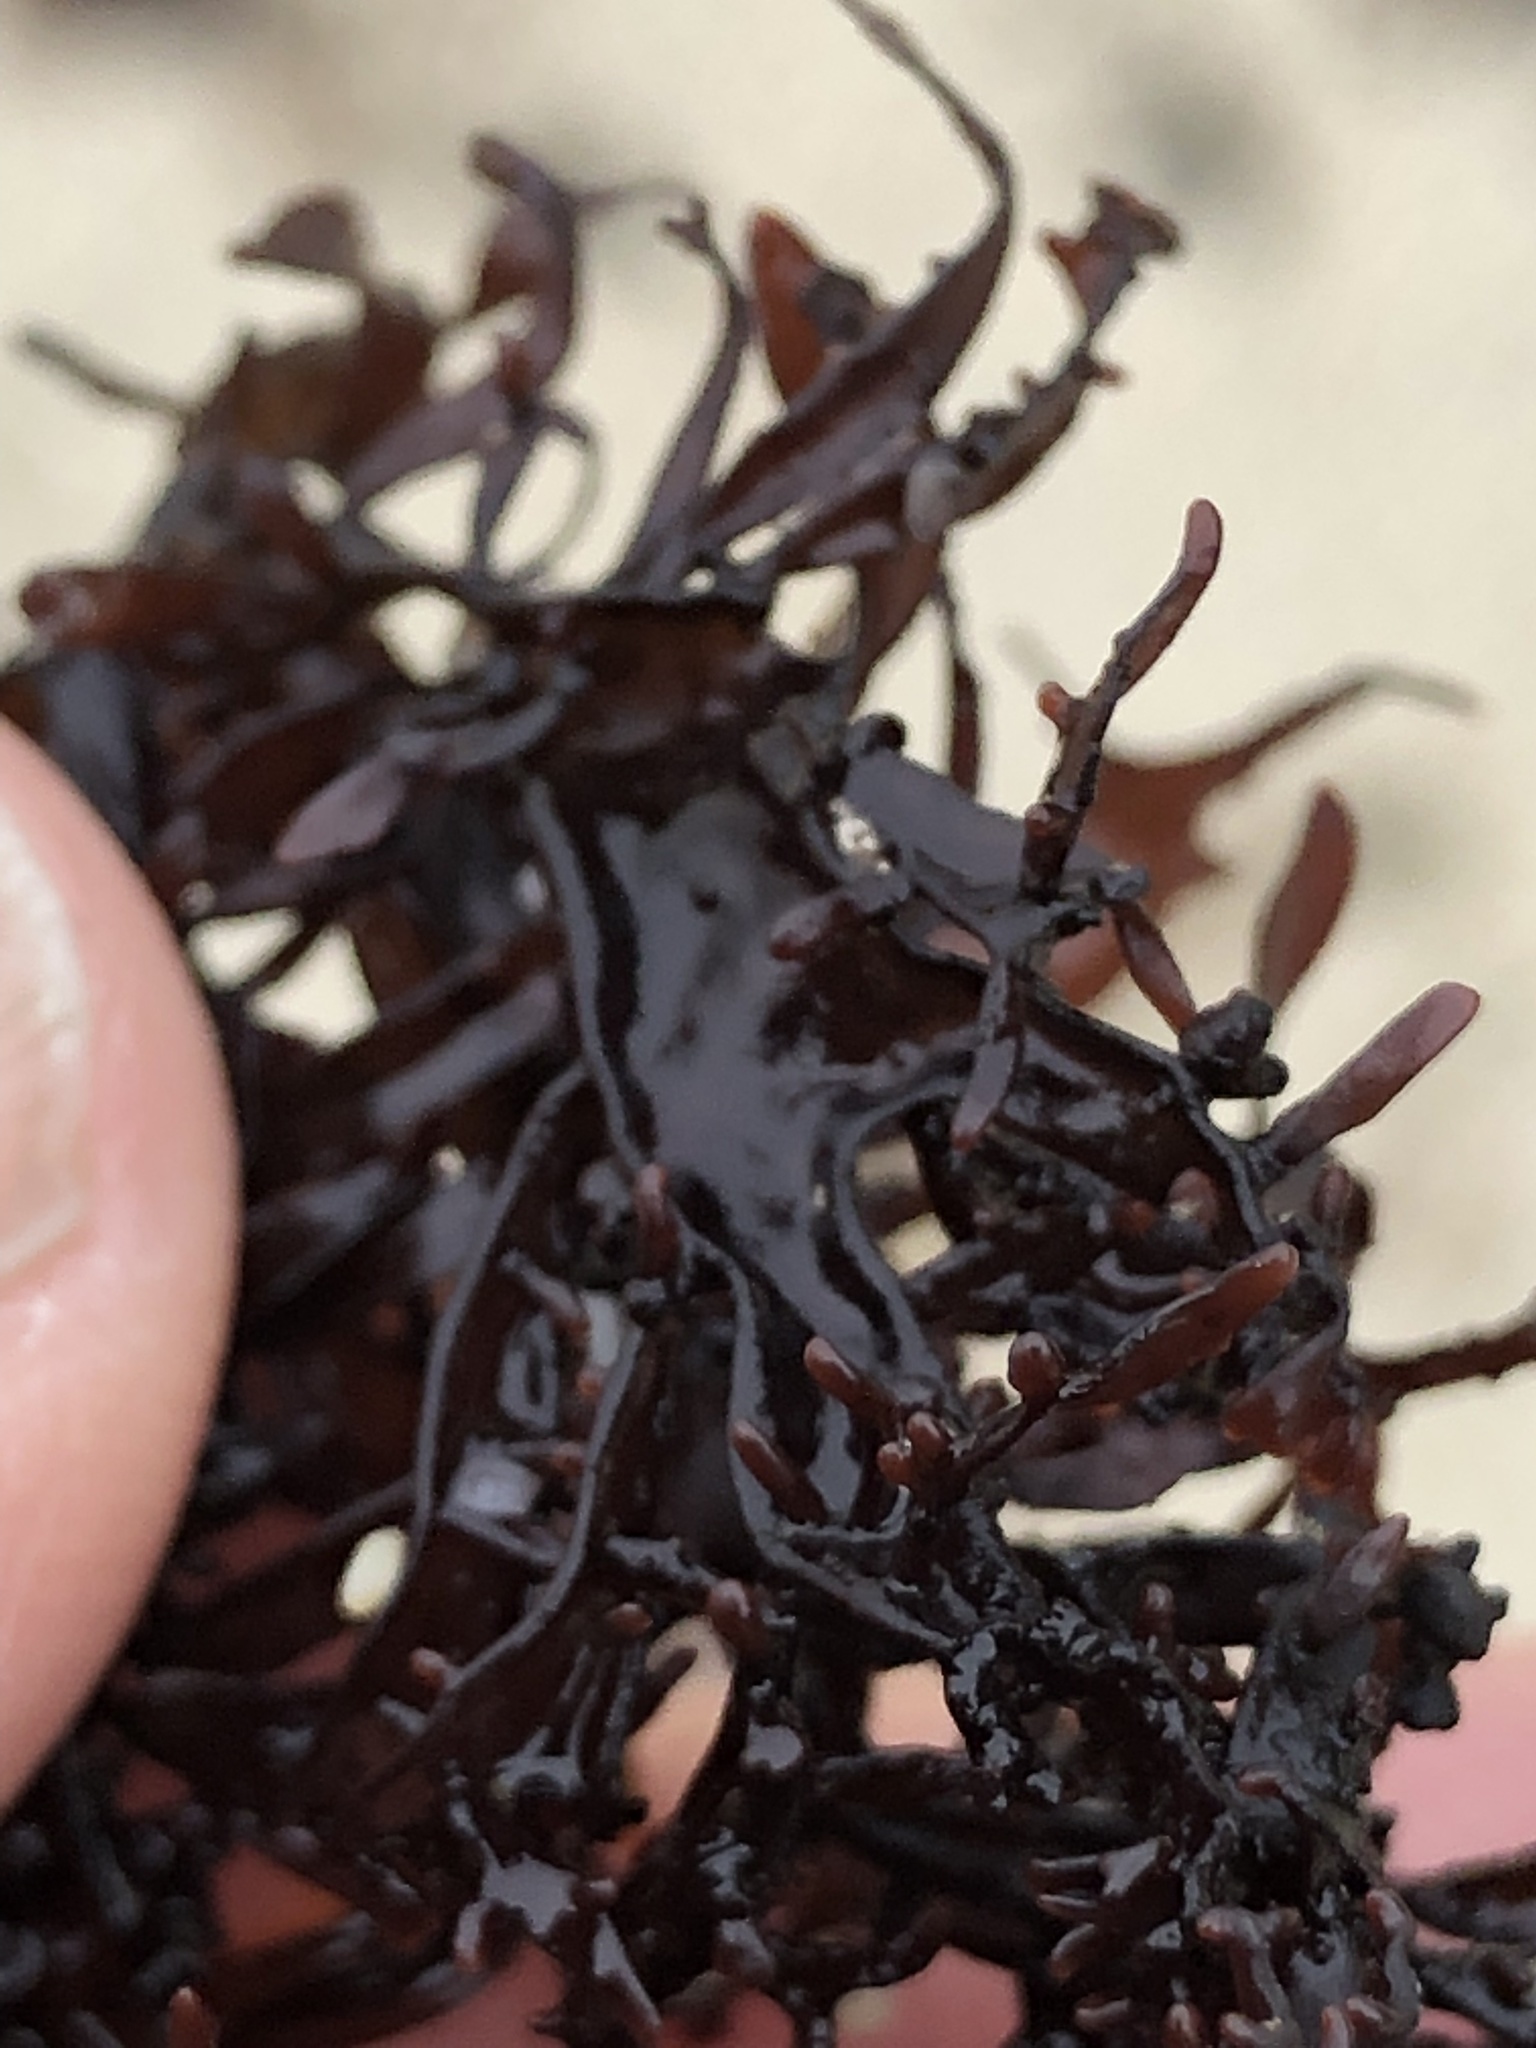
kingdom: Plantae
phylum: Rhodophyta
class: Florideophyceae
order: Gigartinales
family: Phyllophoraceae
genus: Mastocarpus
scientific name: Mastocarpus jardinii
